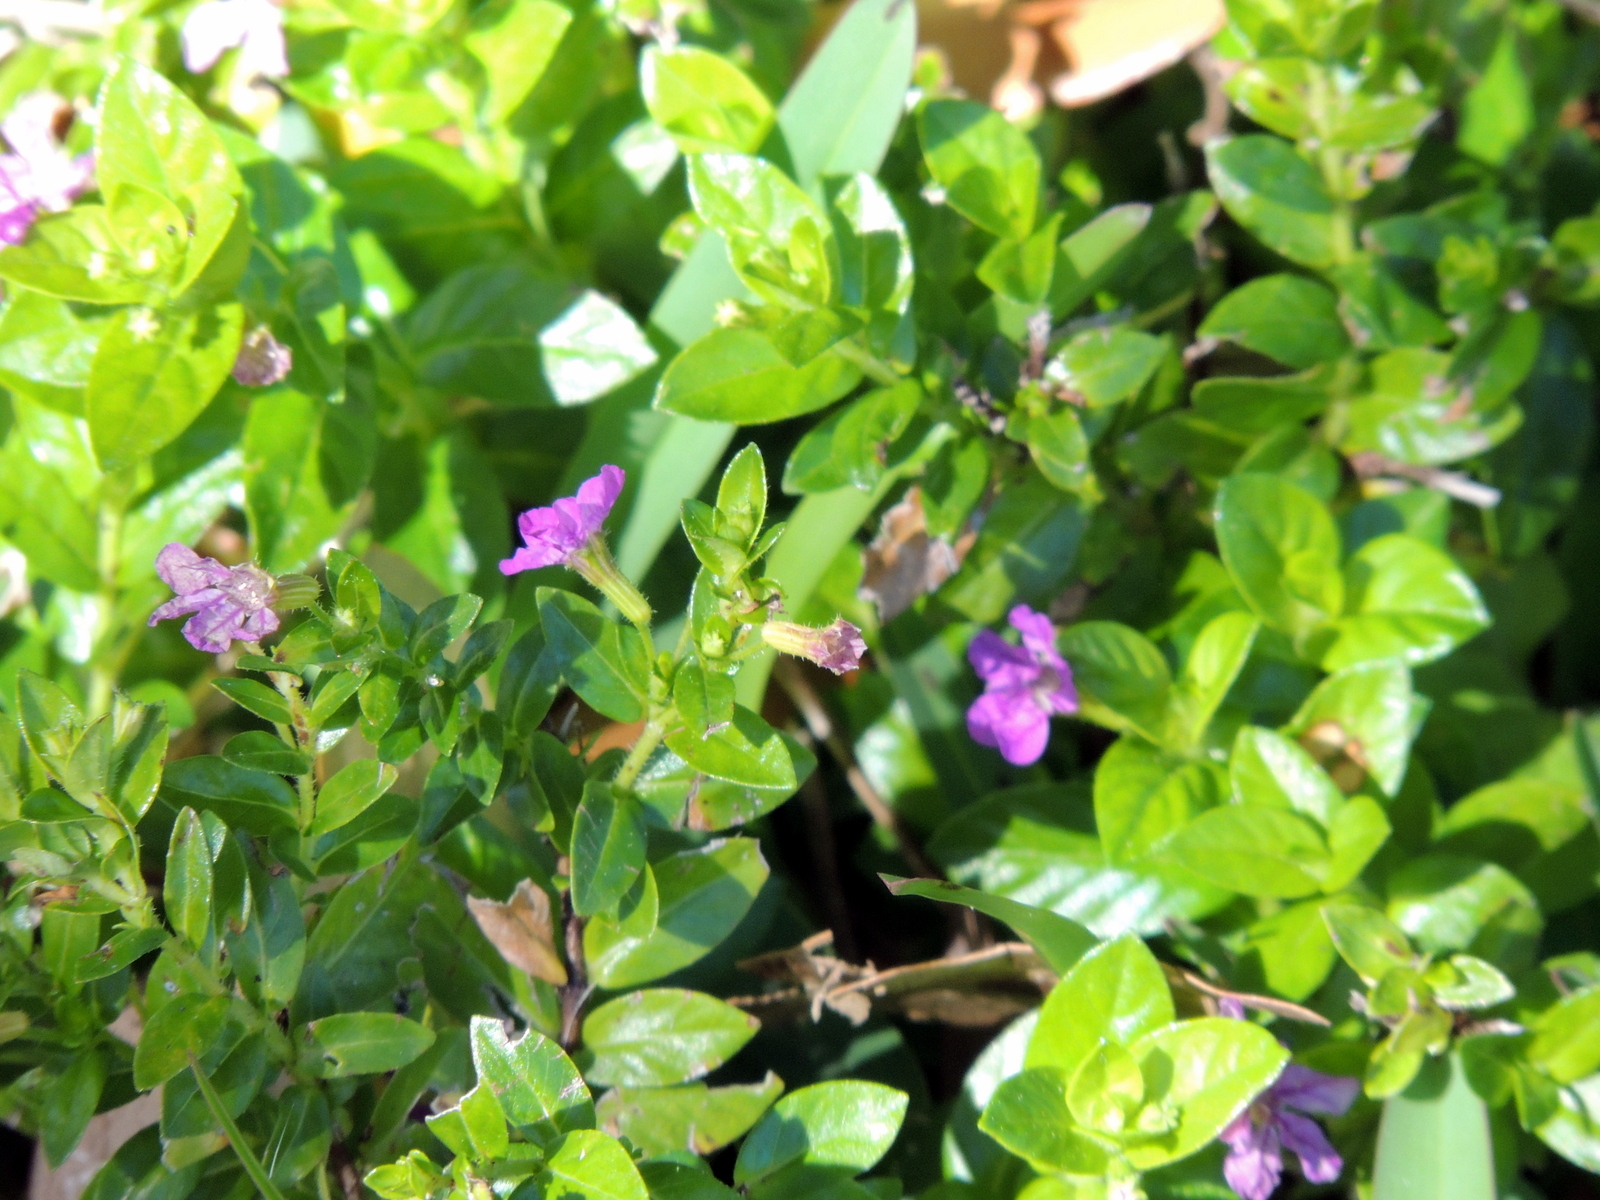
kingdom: Plantae
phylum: Tracheophyta
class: Magnoliopsida
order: Myrtales
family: Lythraceae
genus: Cuphea
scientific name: Cuphea carthagenensis
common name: Colombian waxweed
